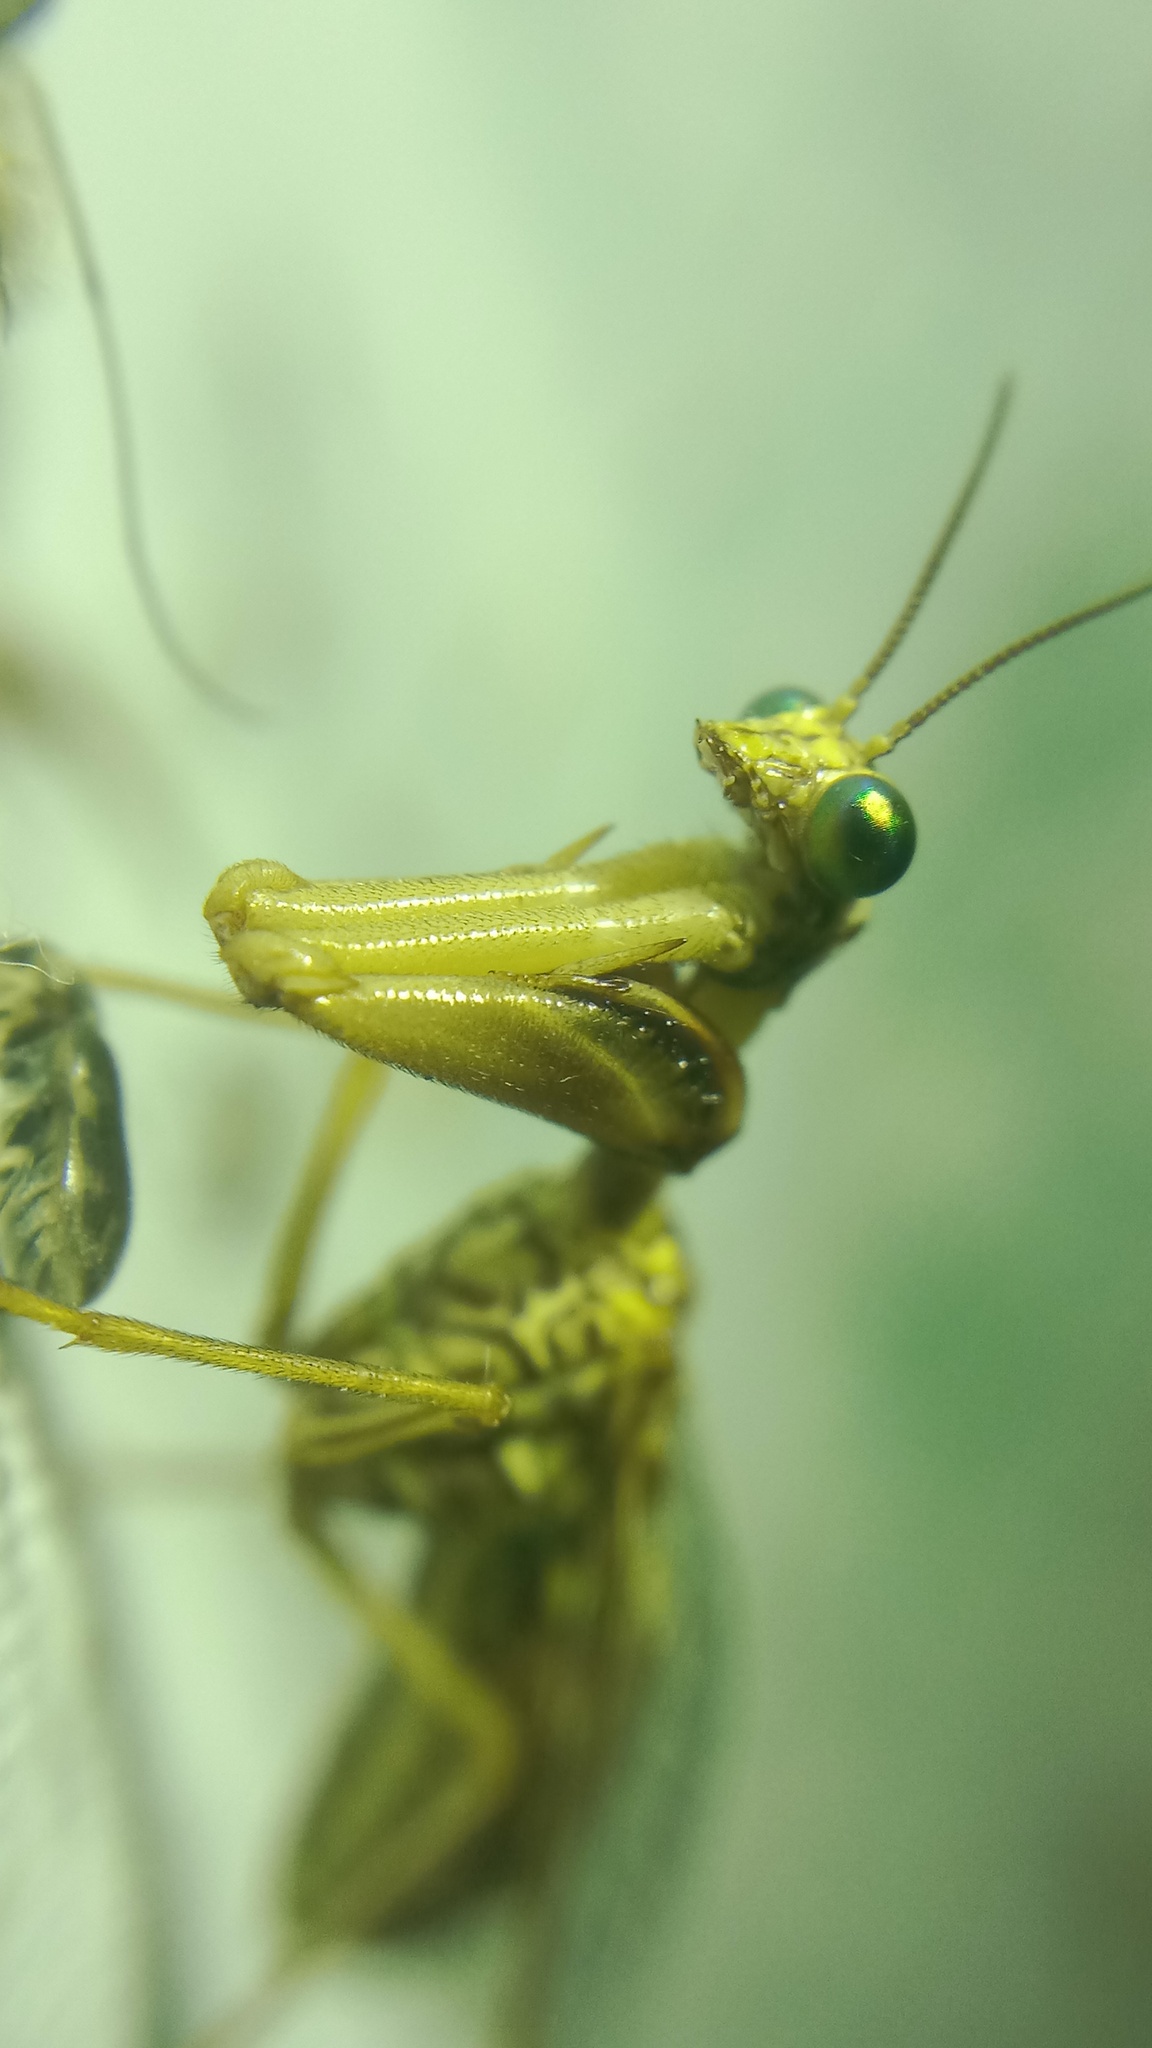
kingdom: Animalia
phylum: Arthropoda
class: Insecta
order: Neuroptera
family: Mantispidae
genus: Mantispa
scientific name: Mantispa styriaca
